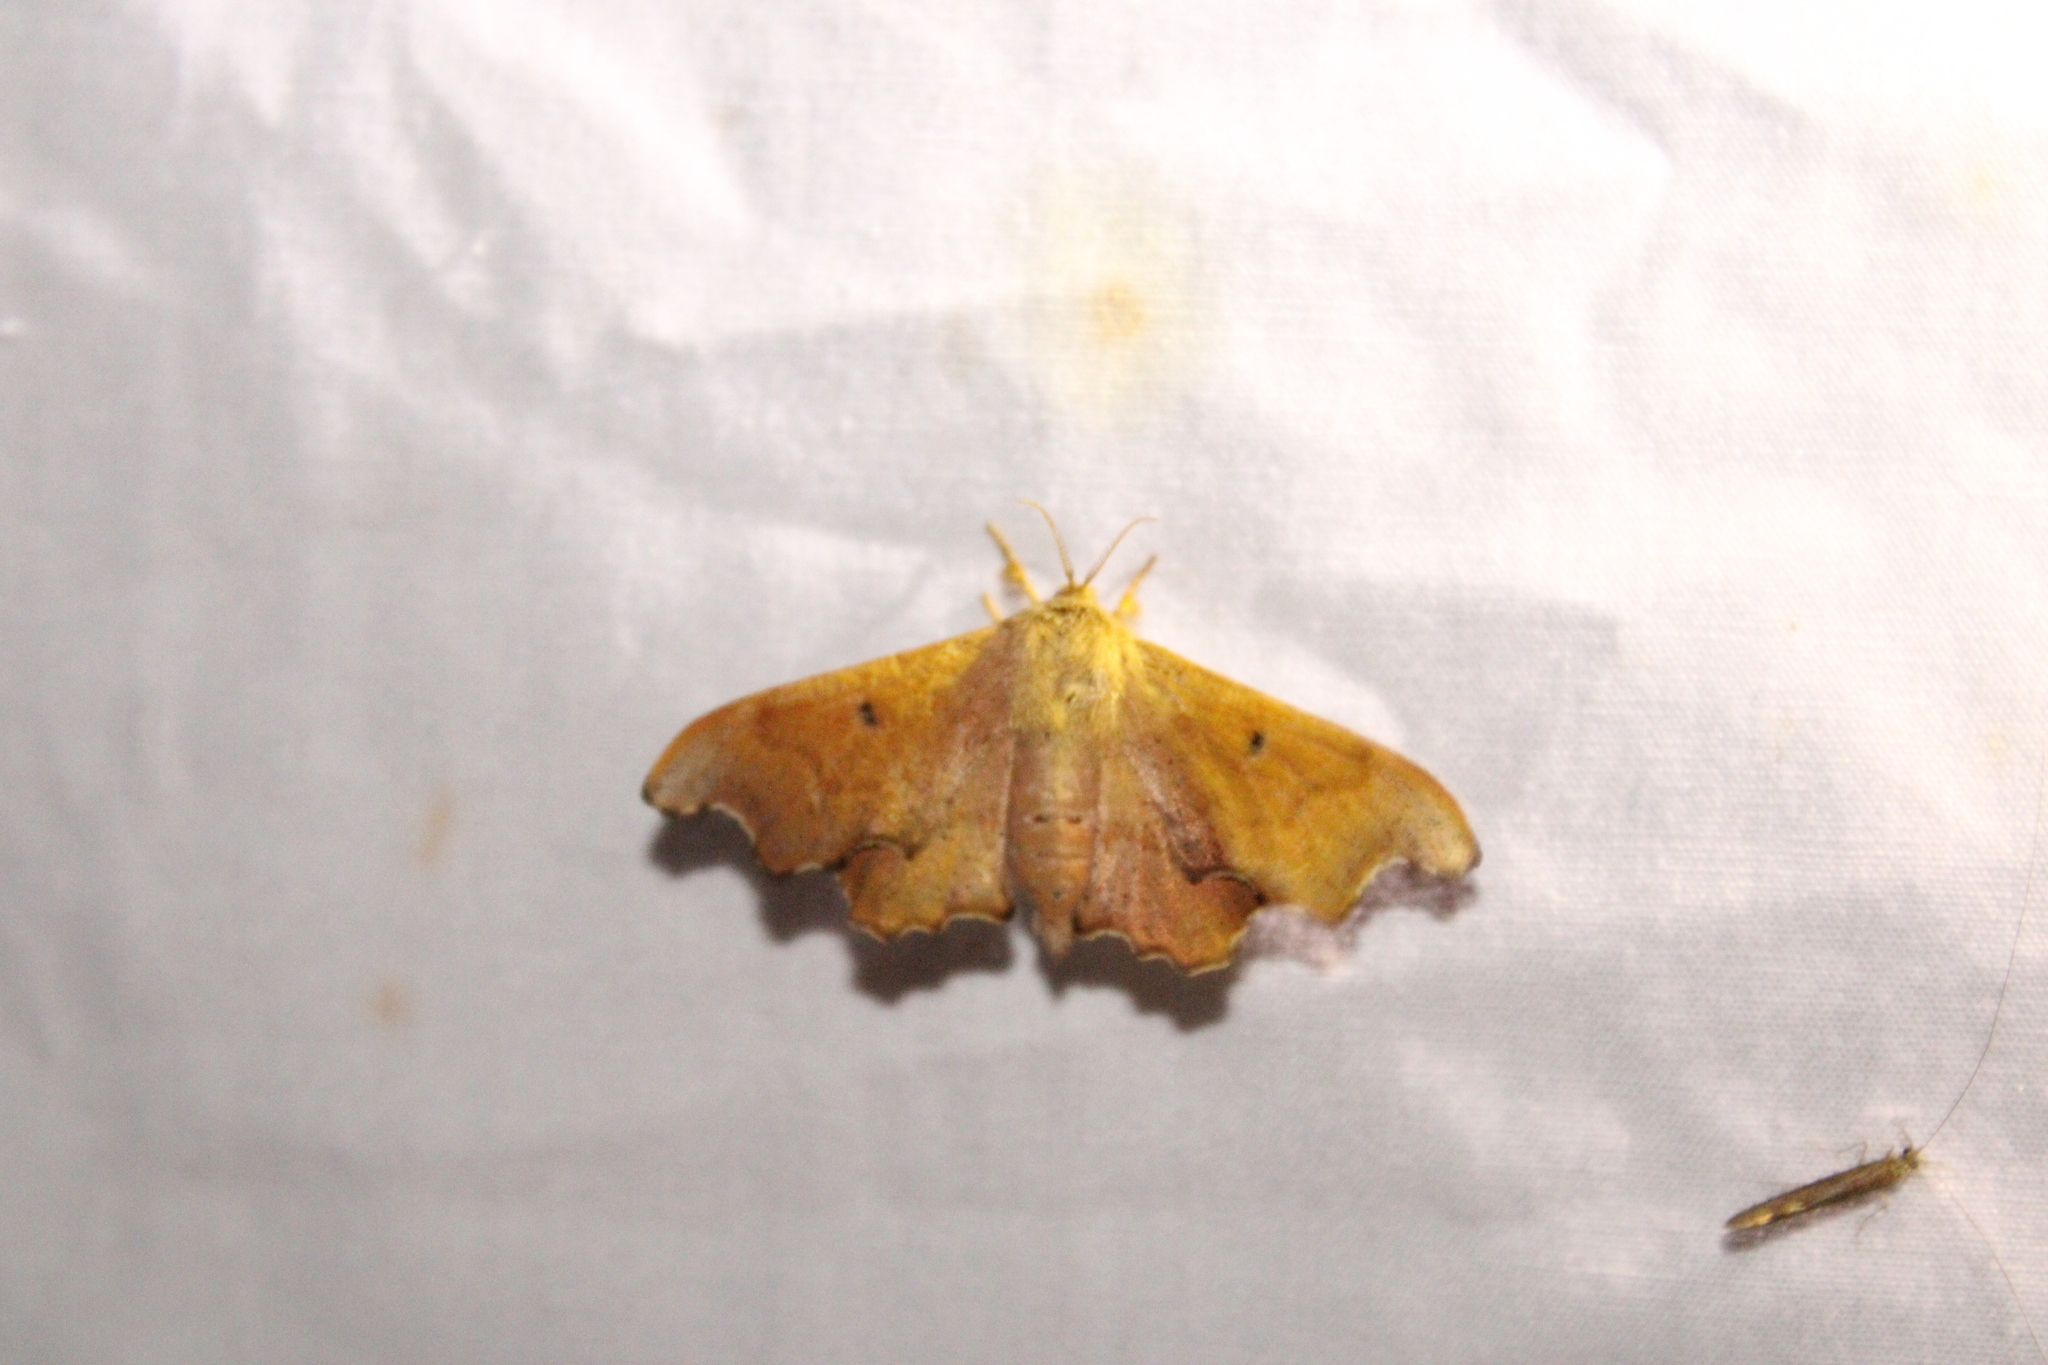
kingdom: Animalia
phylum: Arthropoda
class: Insecta
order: Lepidoptera
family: Mimallonidae
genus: Lacosoma
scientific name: Lacosoma chiridota
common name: Scalloped sack-bearer moth
